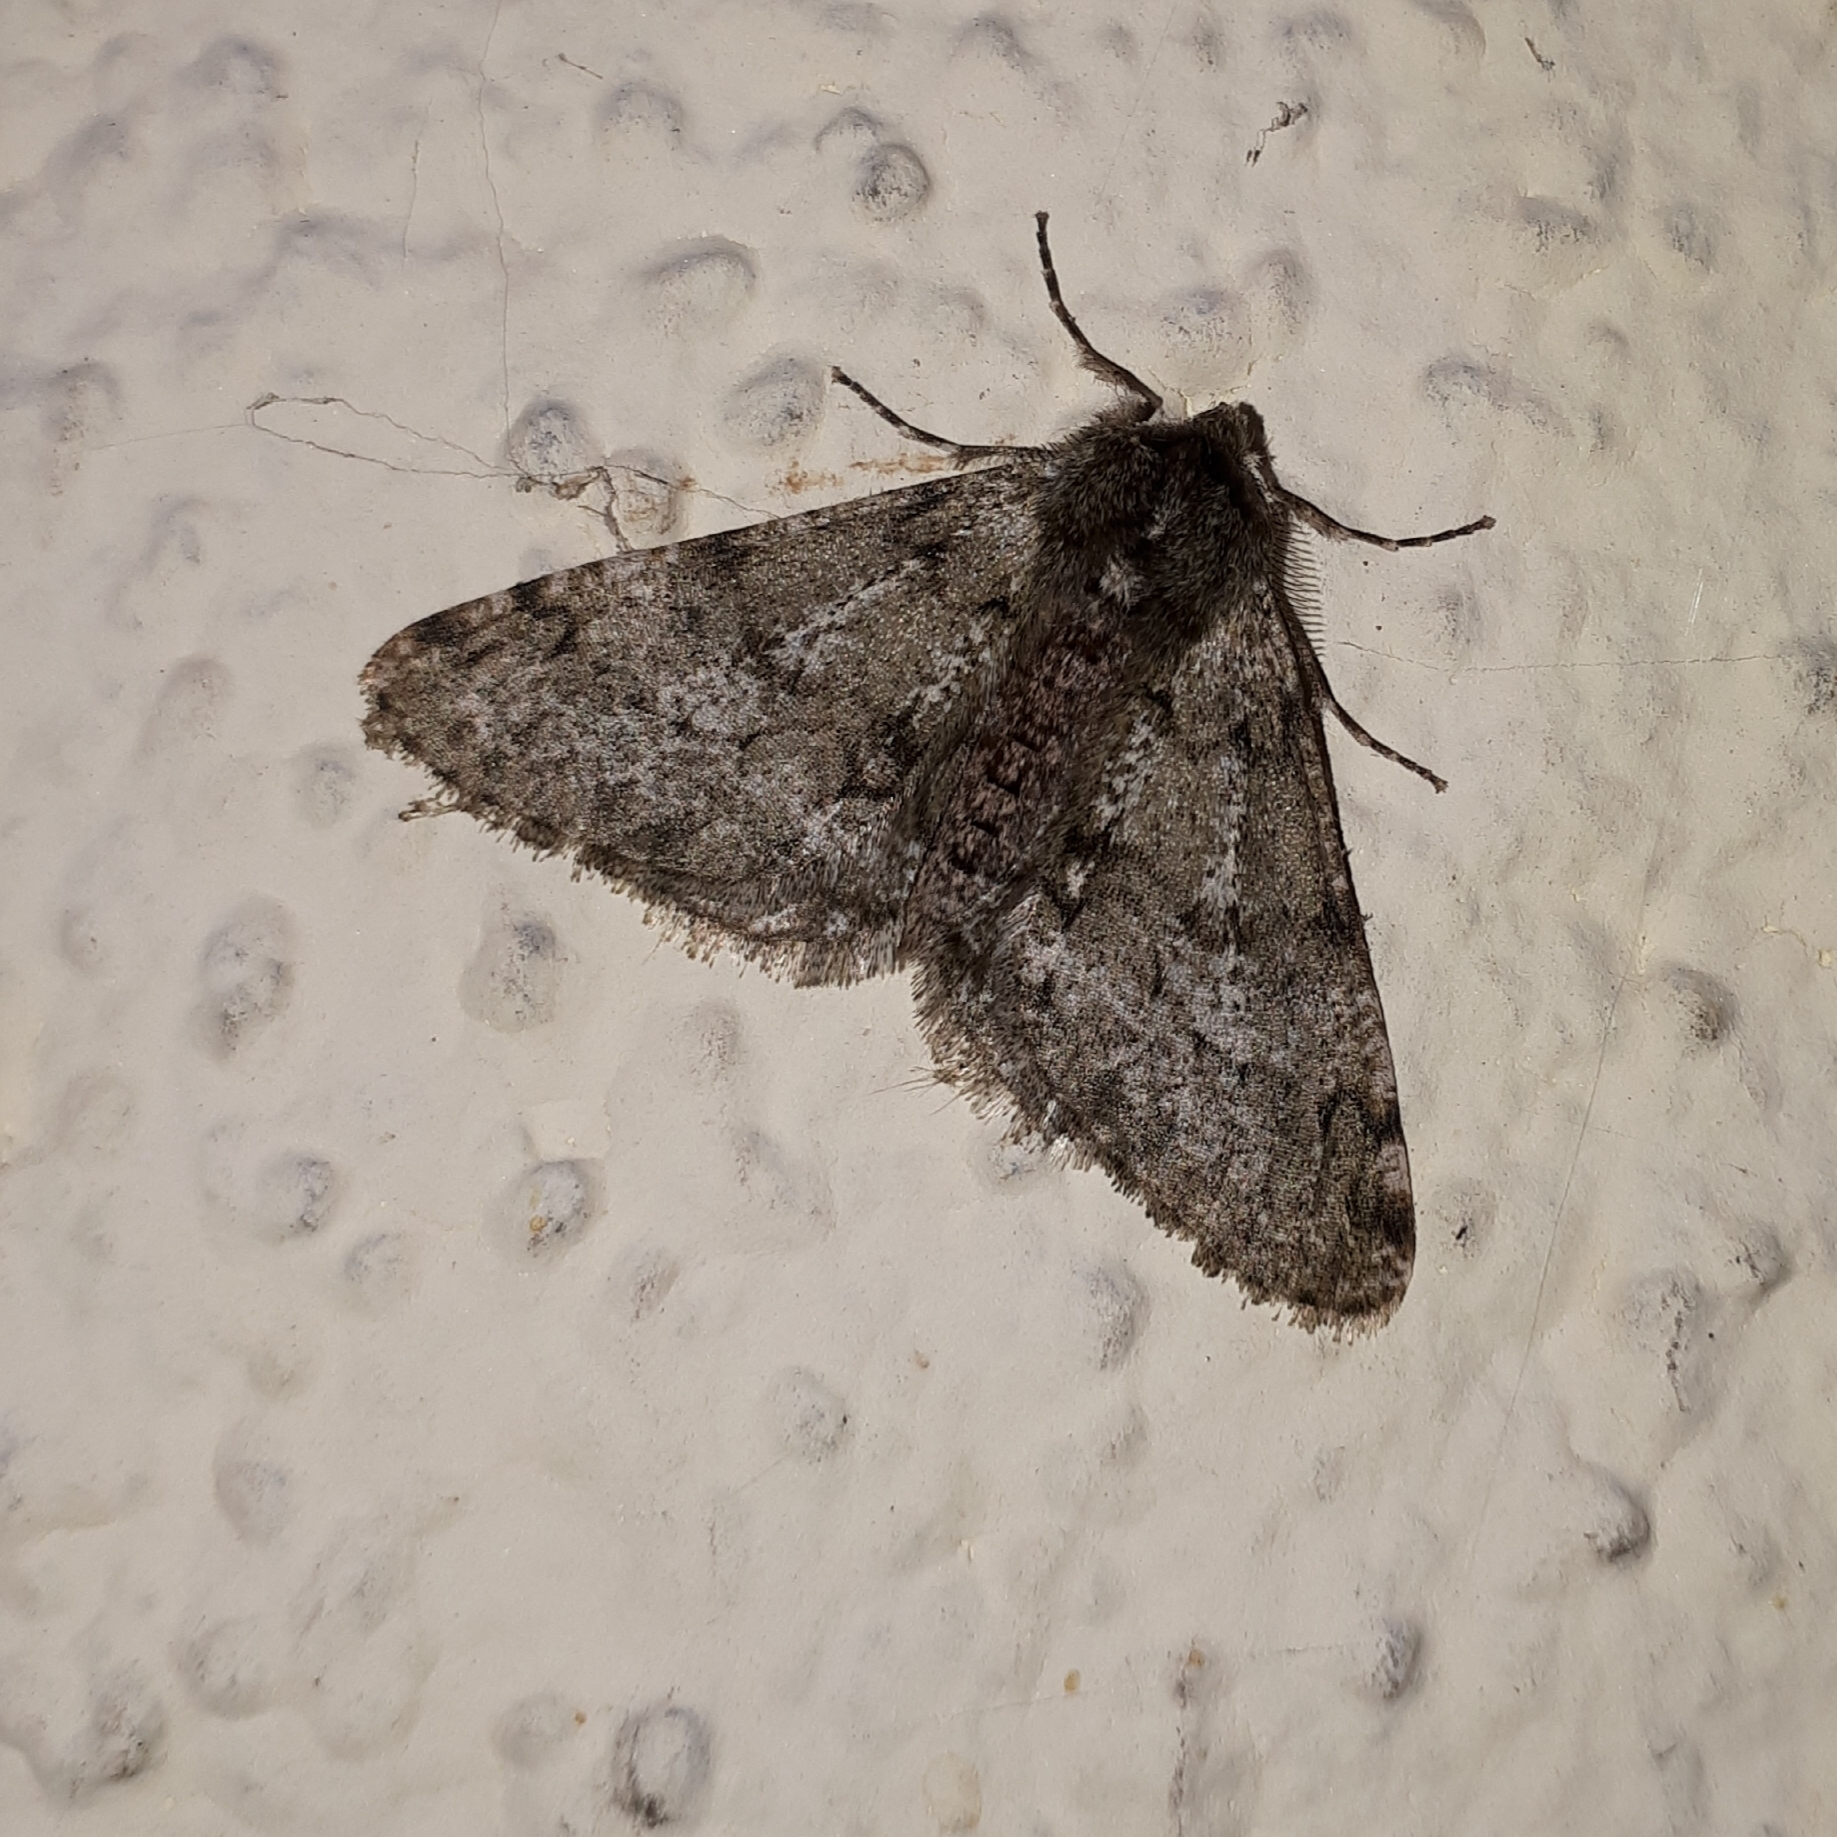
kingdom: Animalia
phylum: Arthropoda
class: Insecta
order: Lepidoptera
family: Geometridae
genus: Phigalia
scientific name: Phigalia pilosaria
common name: Pale brindled beauty
